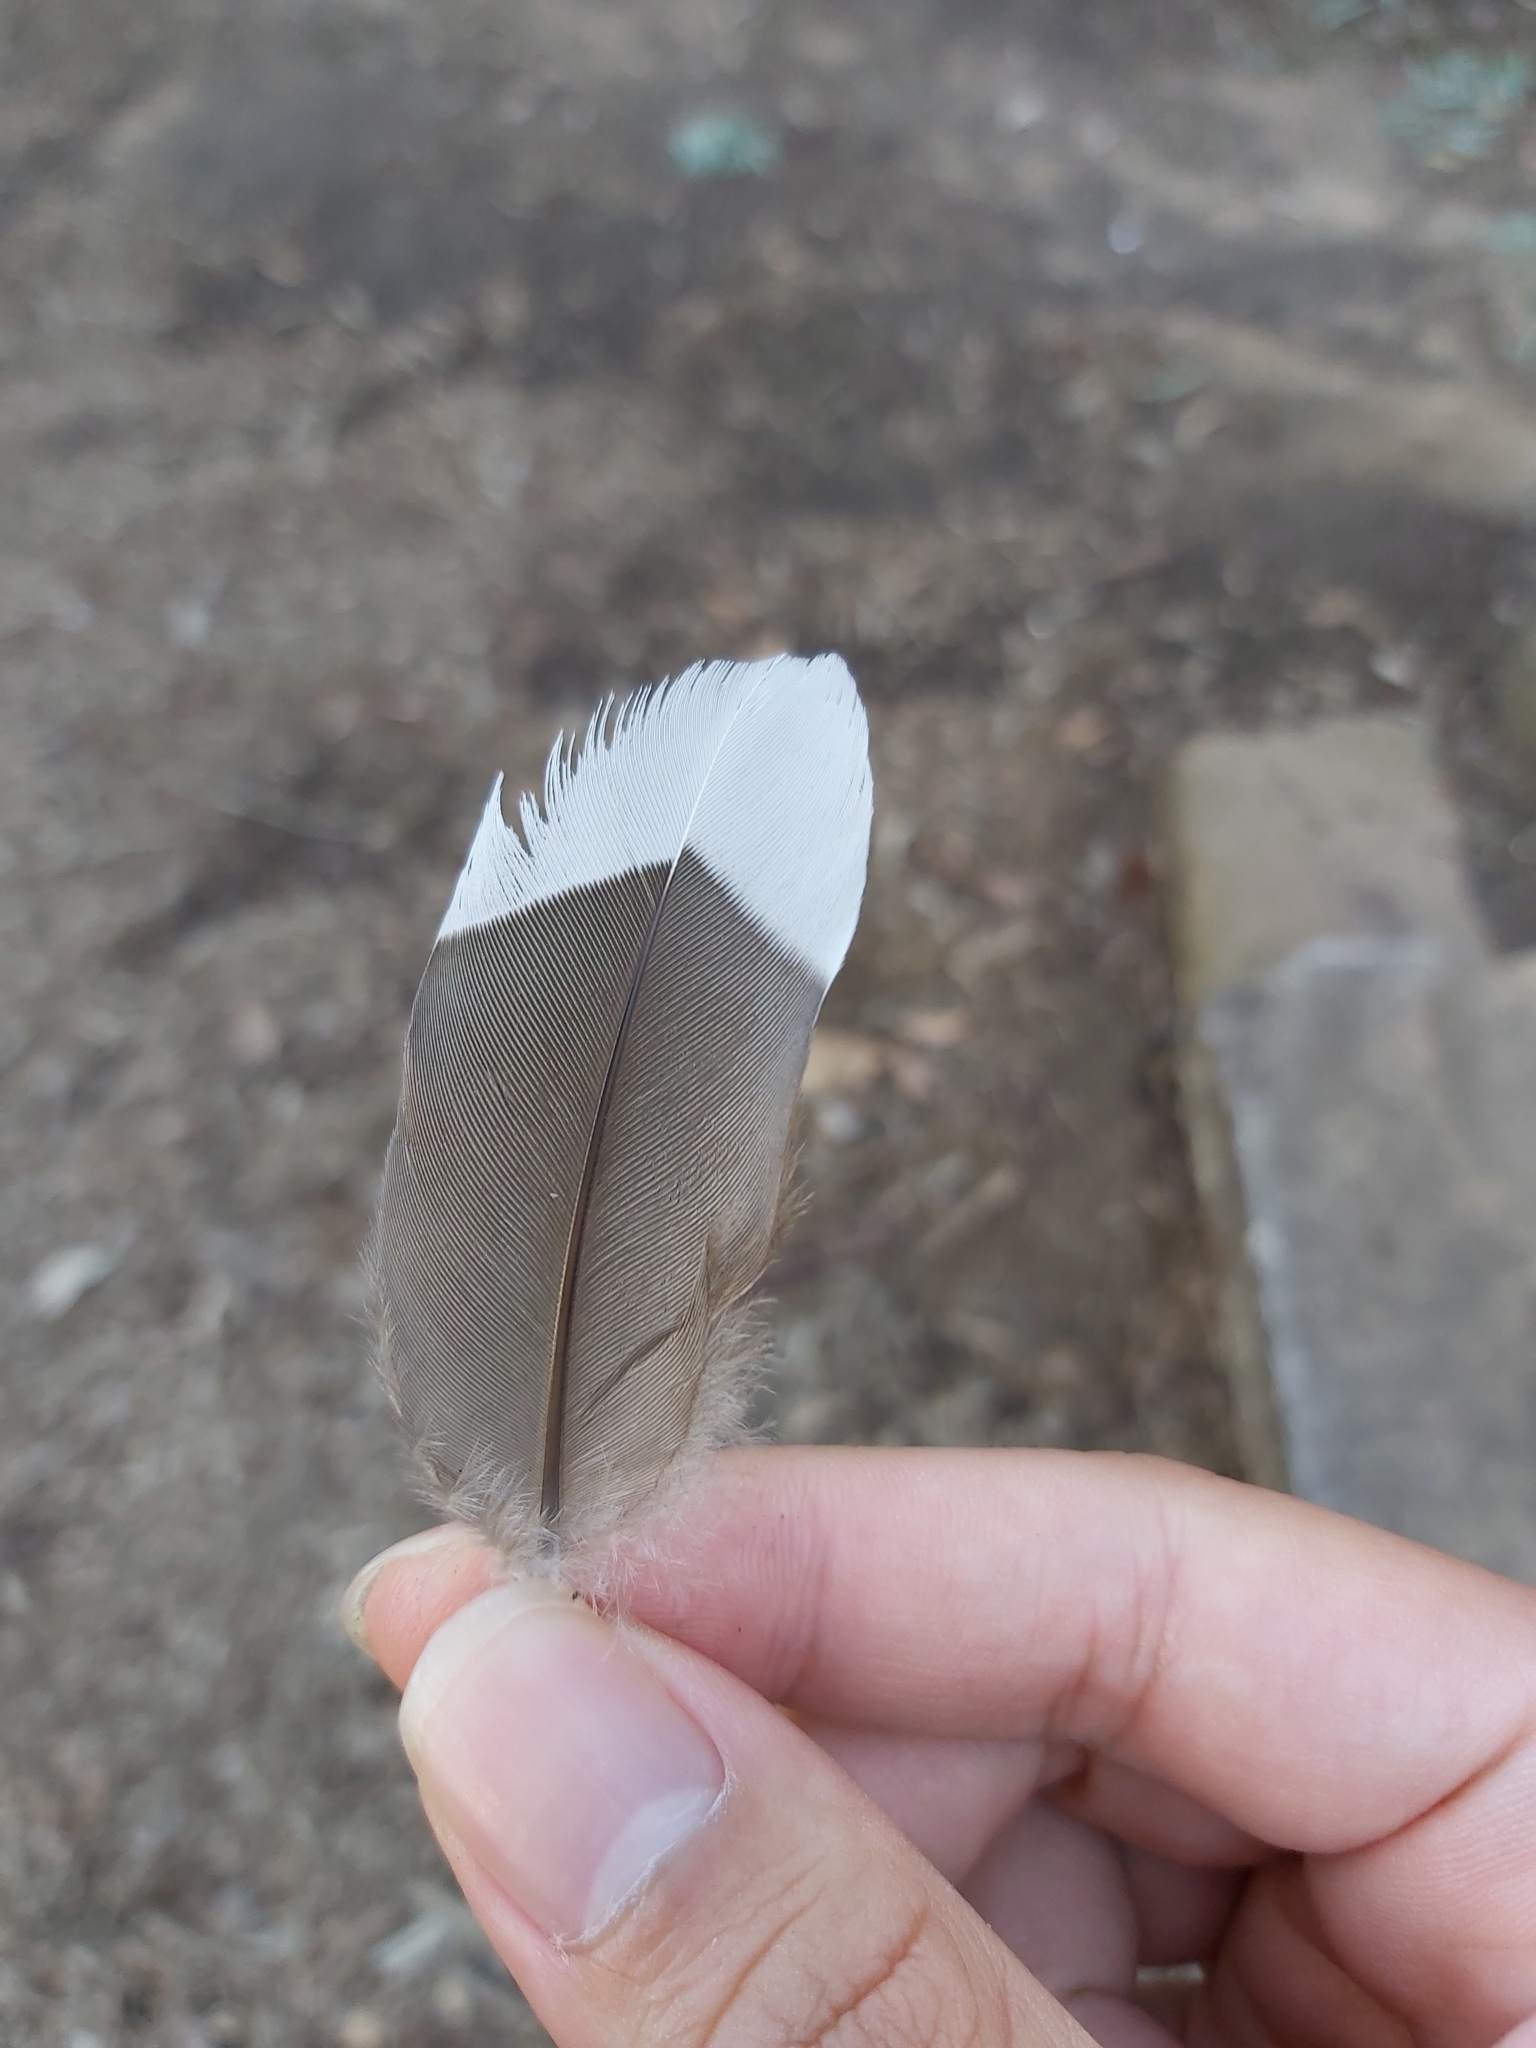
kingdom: Animalia
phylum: Chordata
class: Aves
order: Anseriformes
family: Anatidae
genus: Chenonetta
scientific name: Chenonetta jubata
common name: Maned duck
